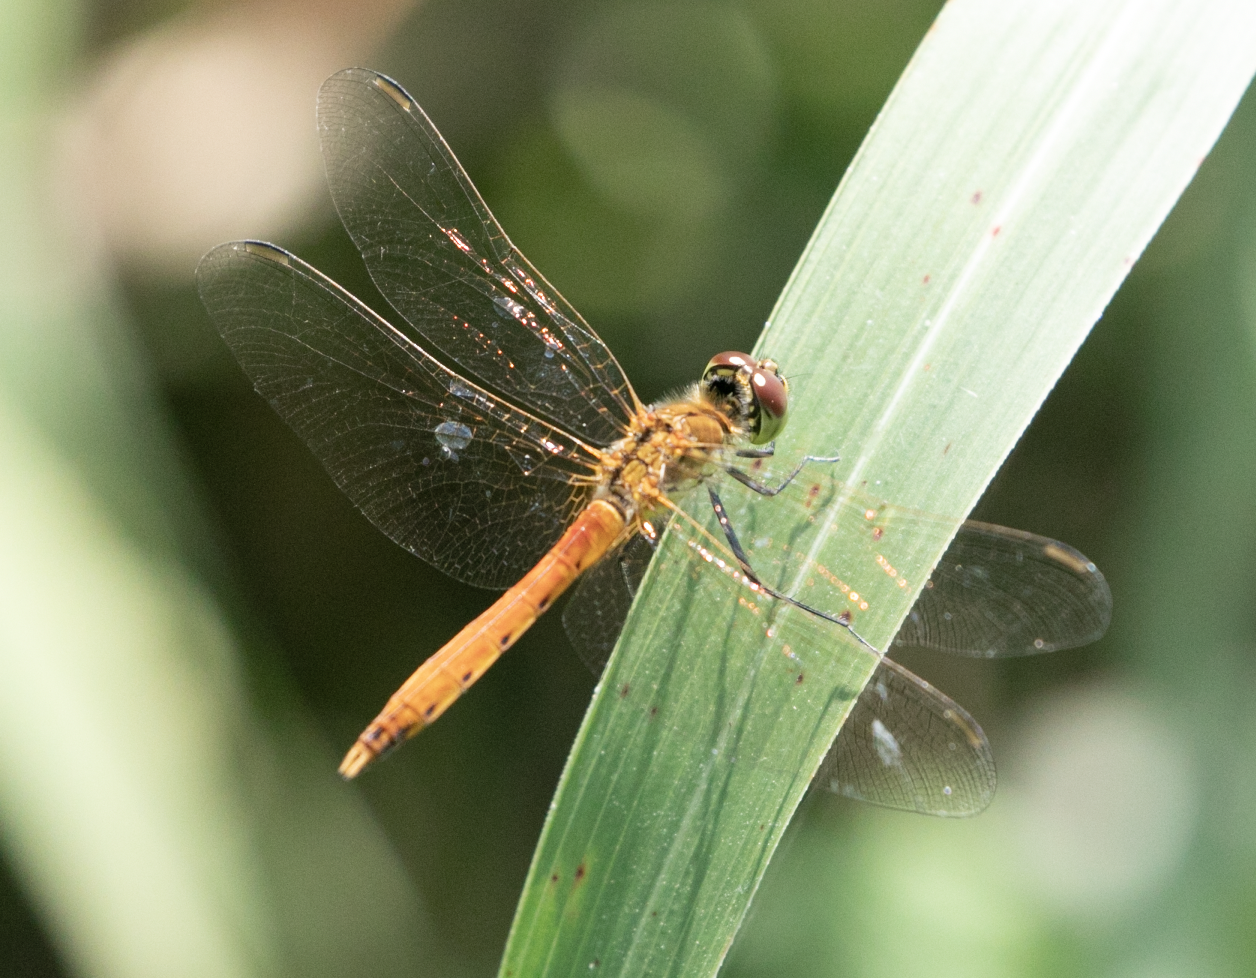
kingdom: Animalia
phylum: Arthropoda
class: Insecta
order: Odonata
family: Libellulidae
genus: Sympetrum
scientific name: Sympetrum depressiusculum
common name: Spotted darter
